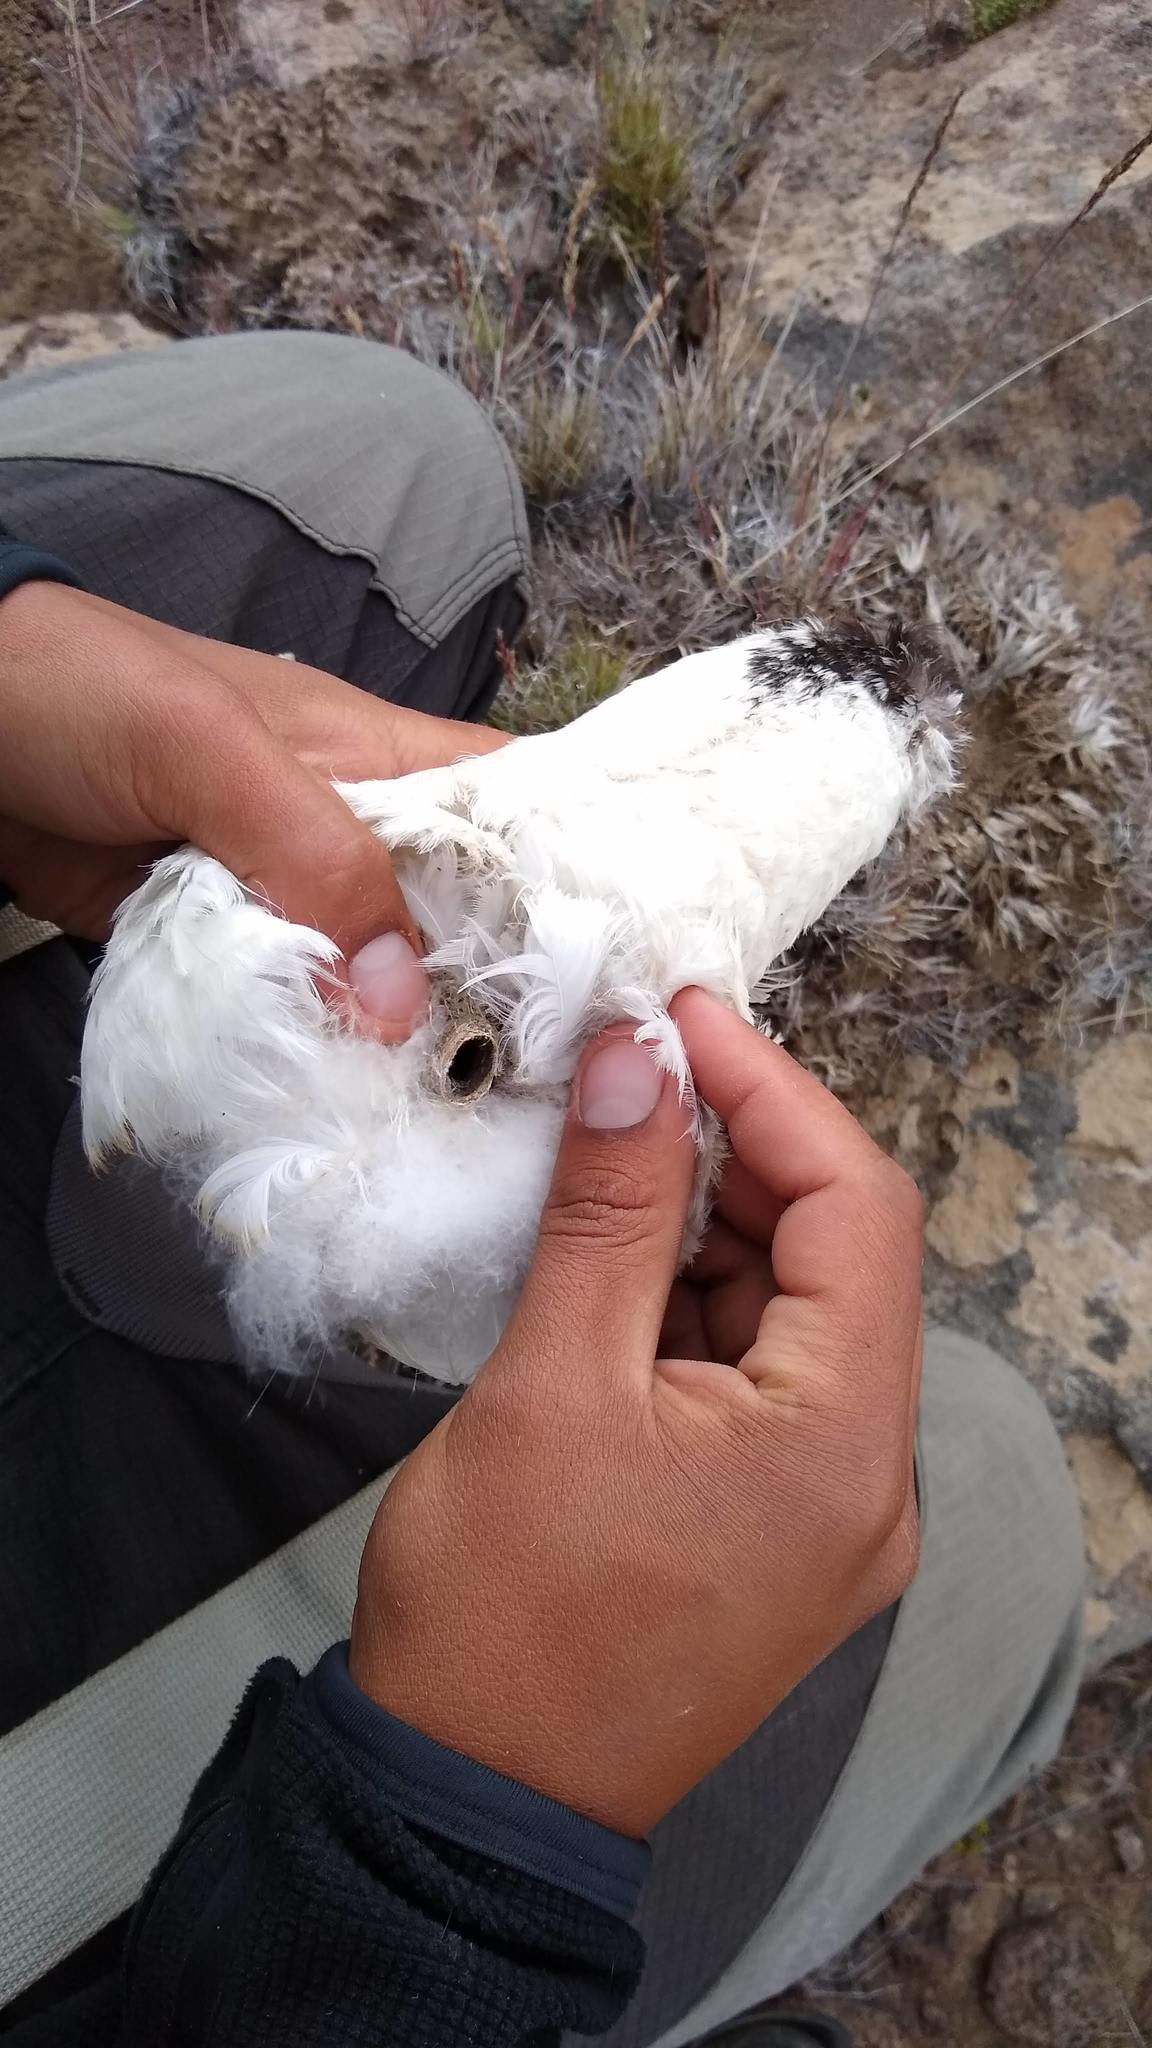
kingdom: Animalia
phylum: Chordata
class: Aves
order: Podicipediformes
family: Podicipedidae
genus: Podiceps
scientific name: Podiceps gallardoi
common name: Hooded grebe
